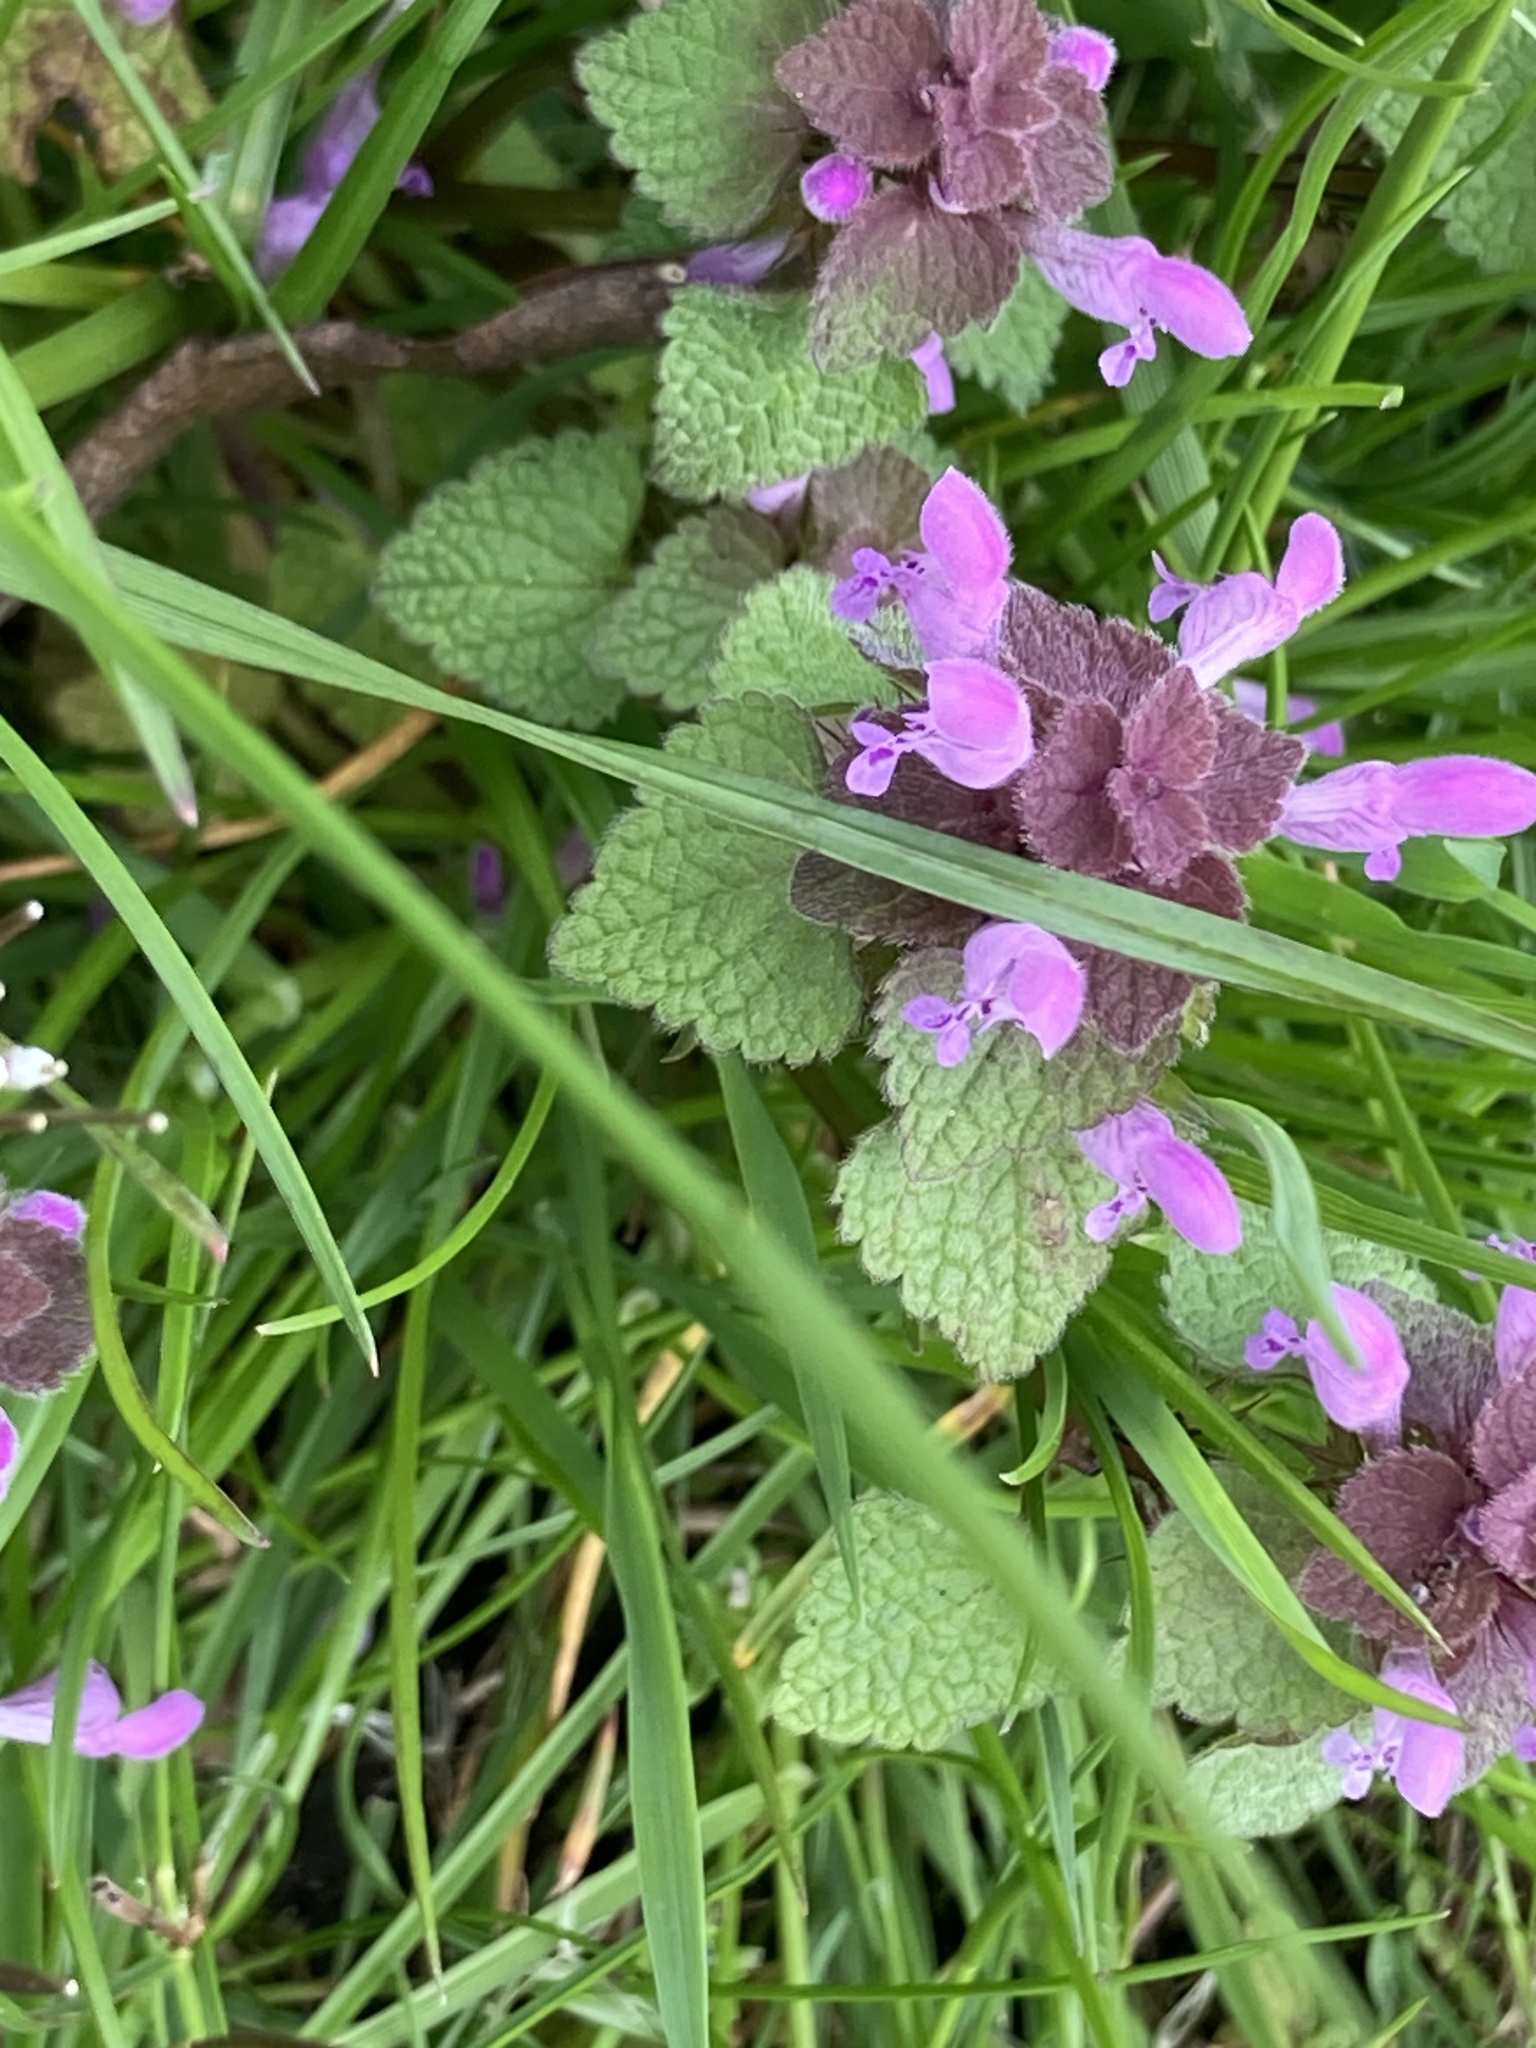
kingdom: Plantae
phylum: Tracheophyta
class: Magnoliopsida
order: Lamiales
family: Lamiaceae
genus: Lamium
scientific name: Lamium purpureum
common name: Red dead-nettle
